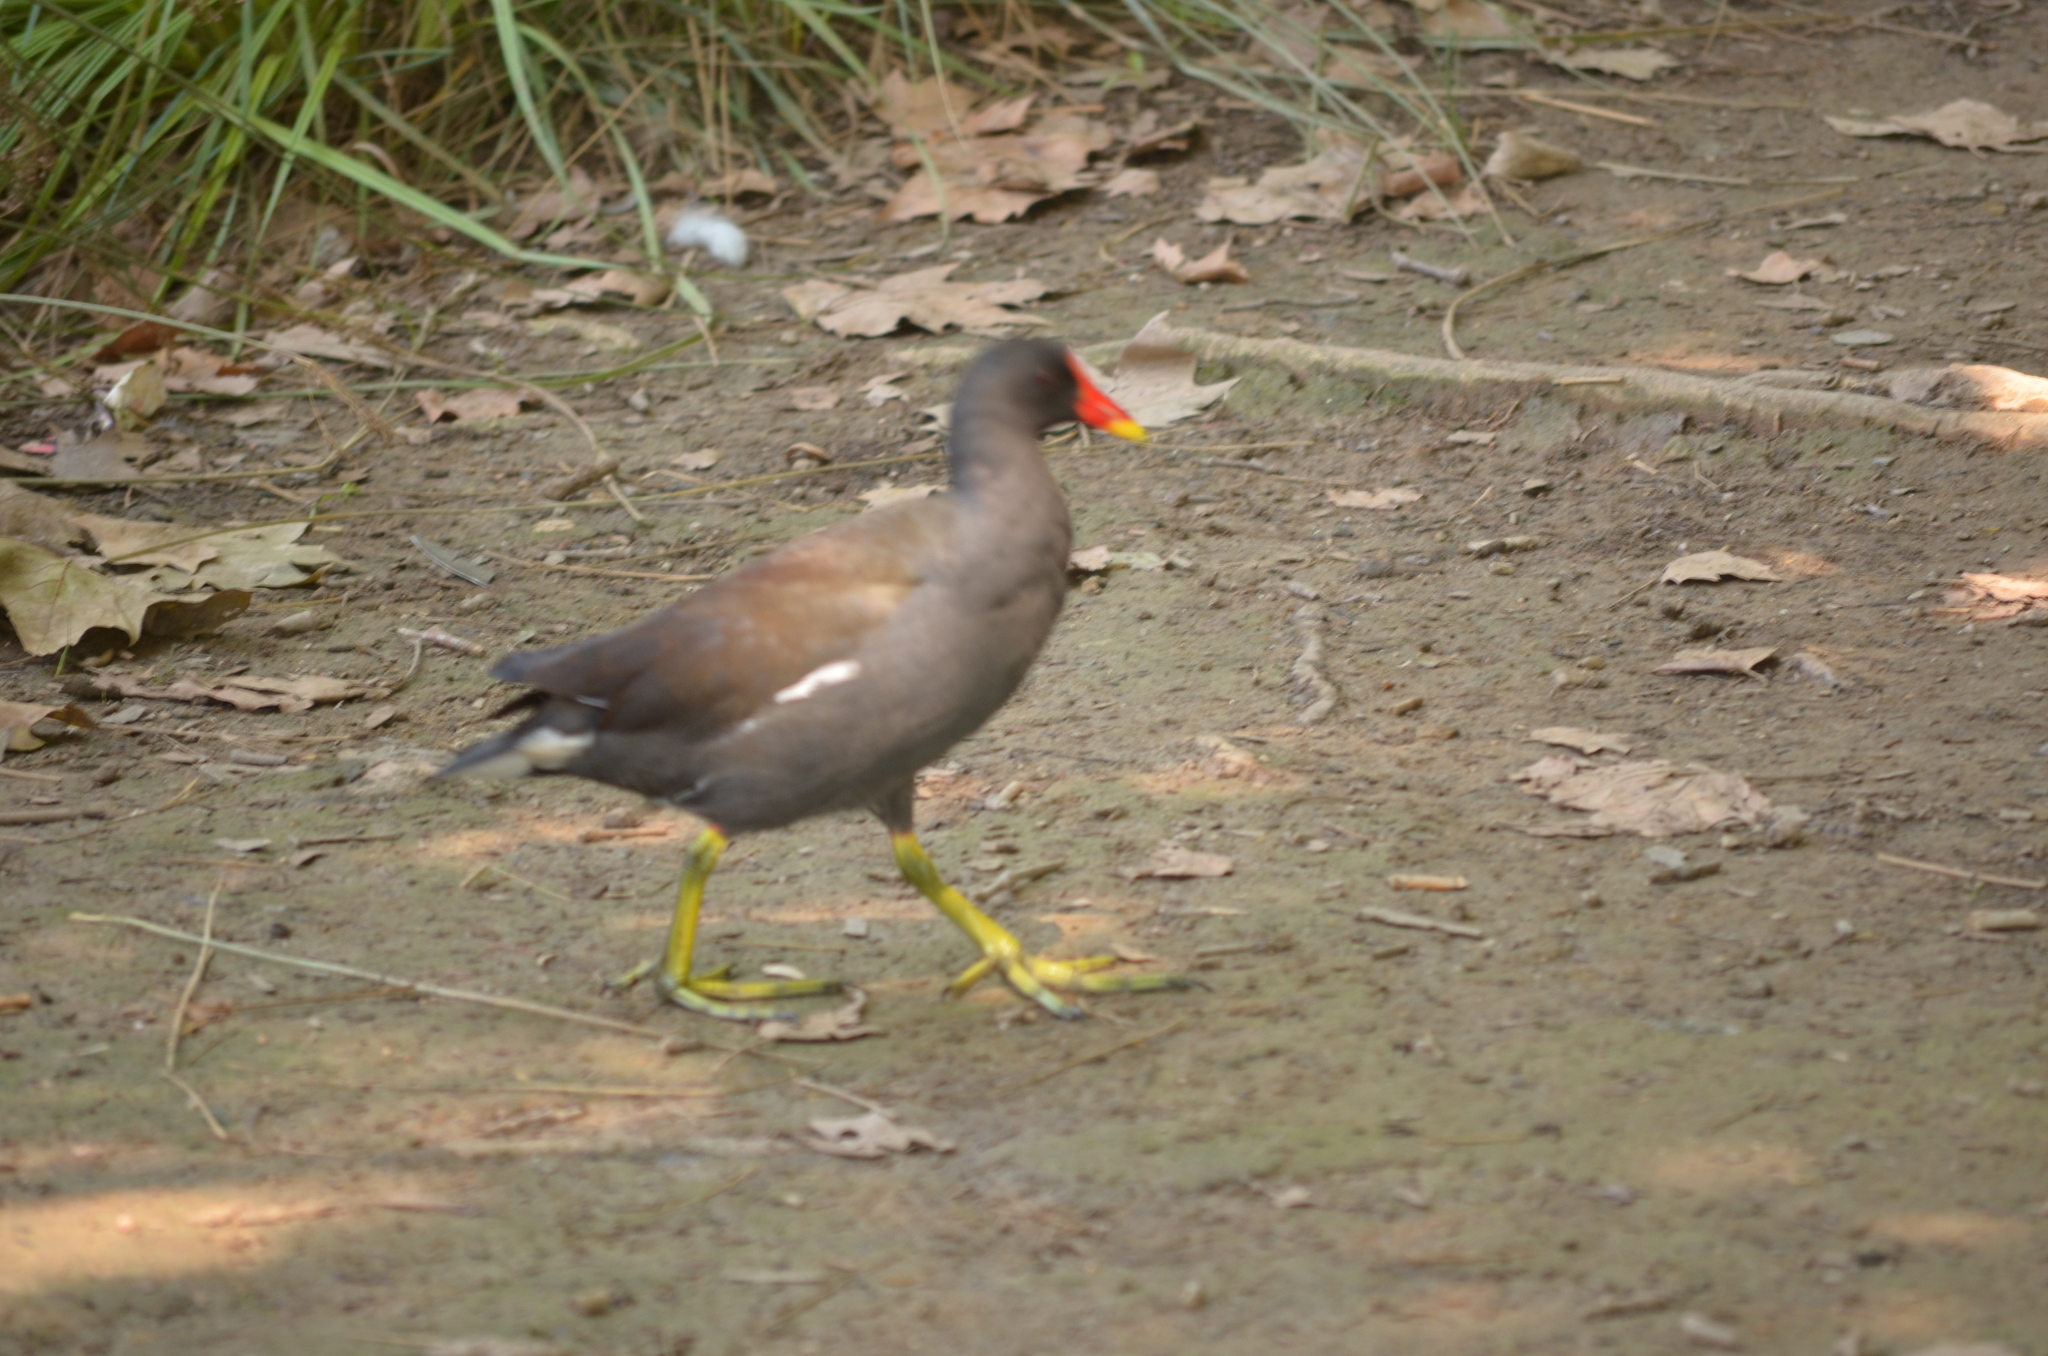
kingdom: Animalia
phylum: Chordata
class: Aves
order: Gruiformes
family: Rallidae
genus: Gallinula
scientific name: Gallinula chloropus
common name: Common moorhen
